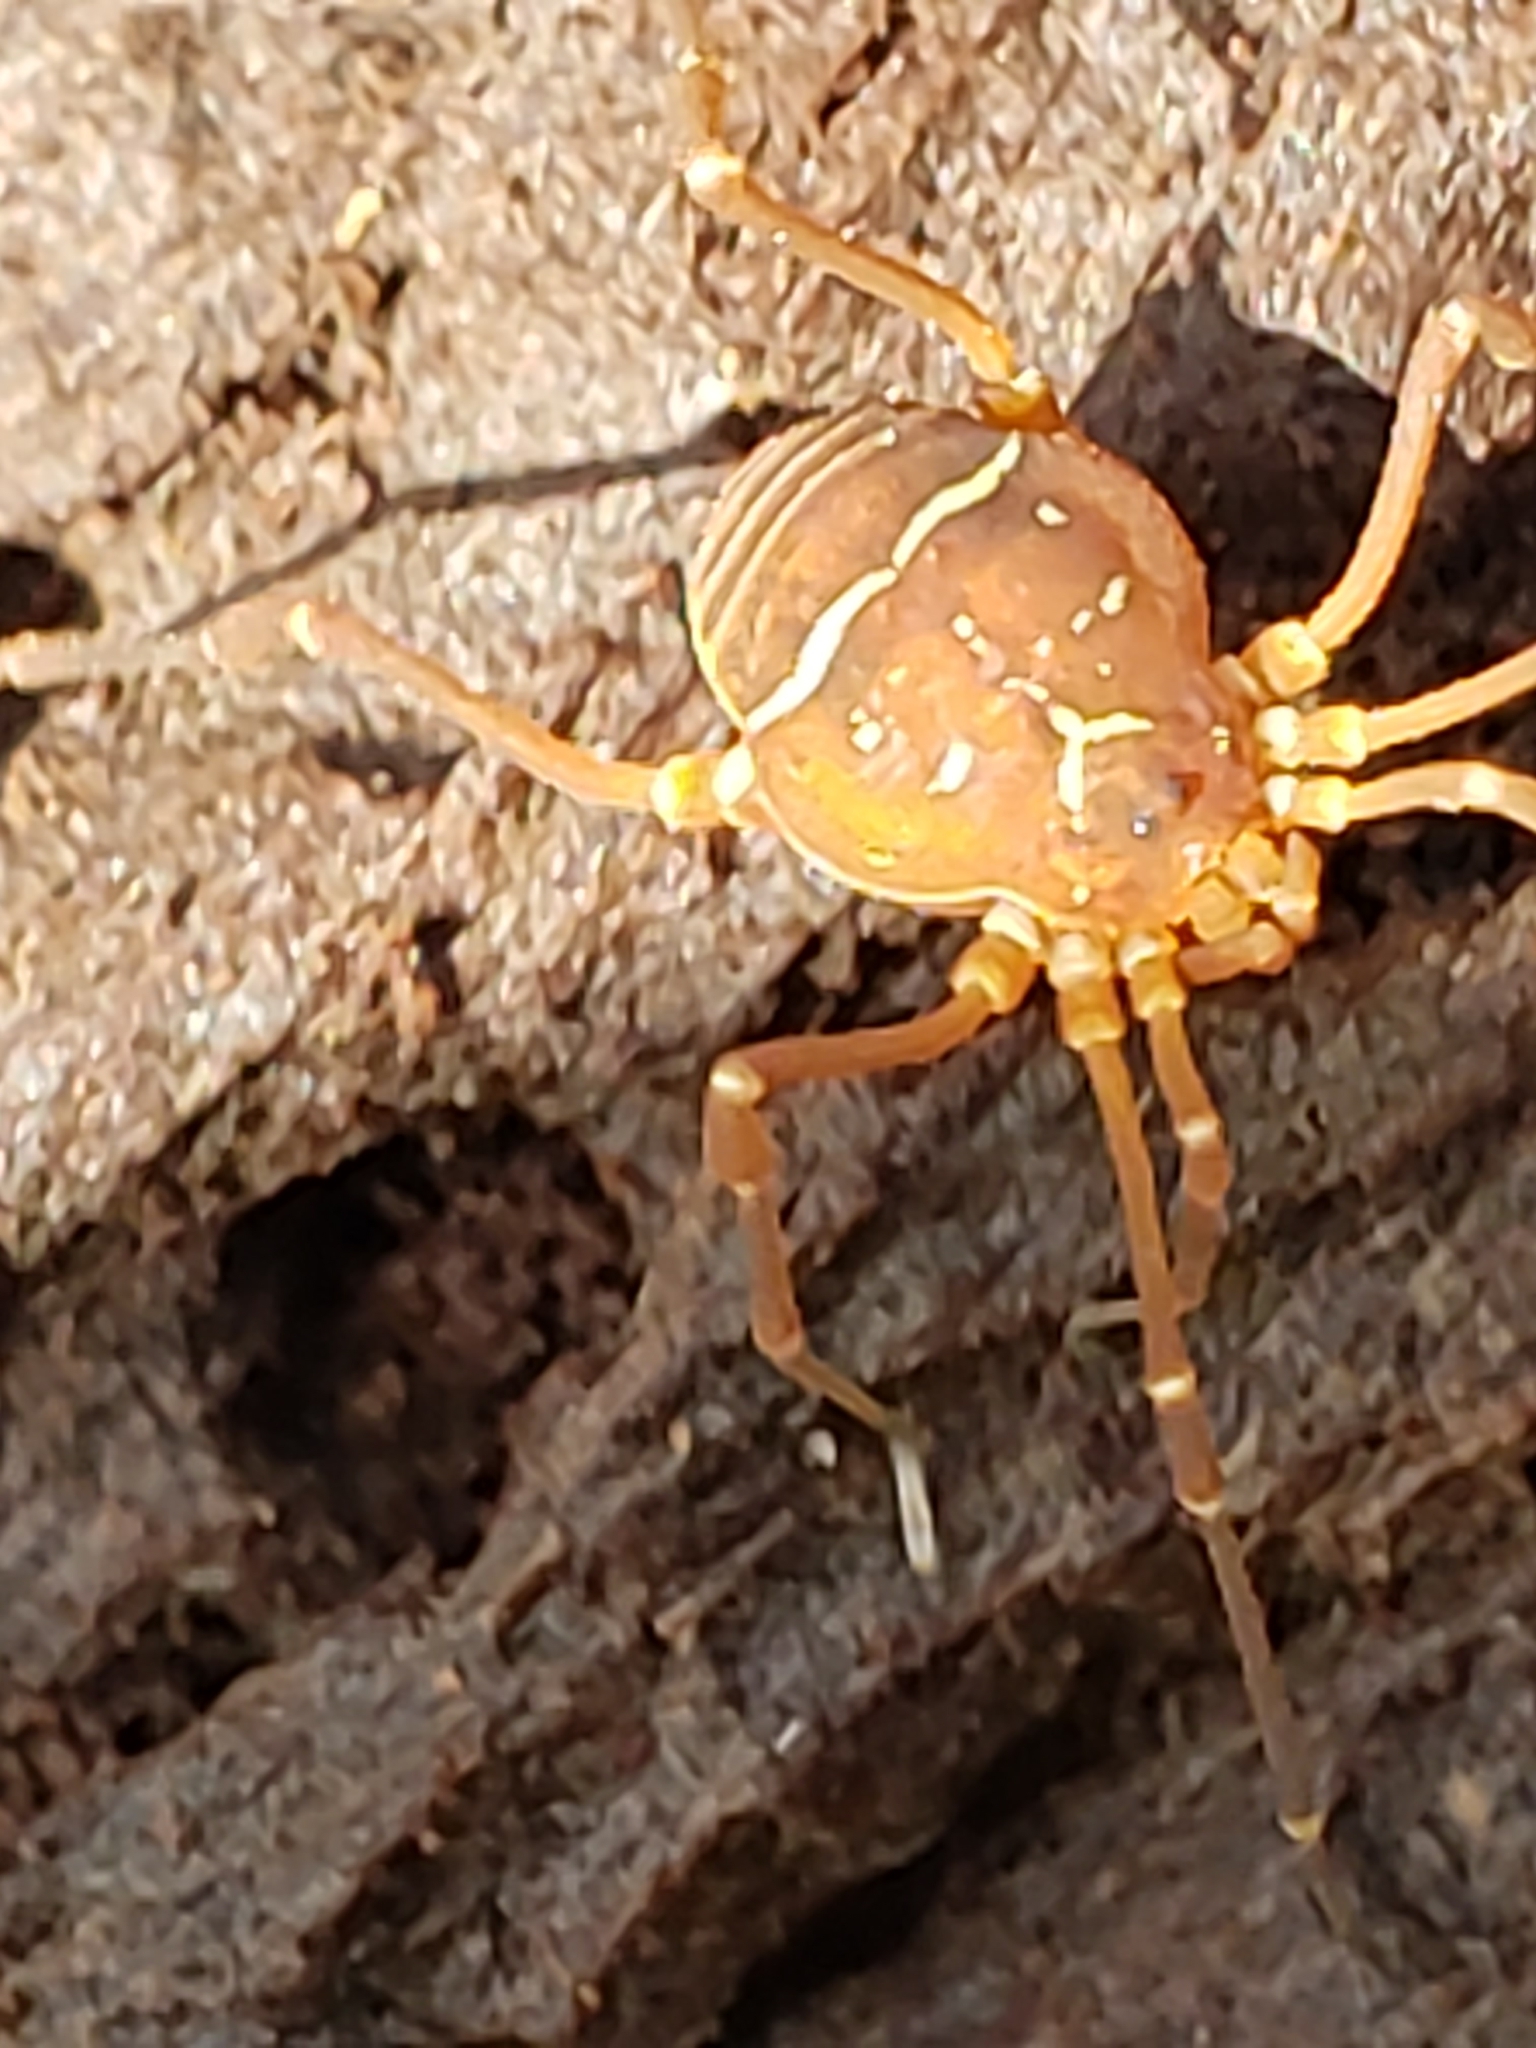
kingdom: Animalia
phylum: Arthropoda
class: Arachnida
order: Opiliones
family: Cosmetidae
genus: Libitioides
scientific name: Libitioides sayi
